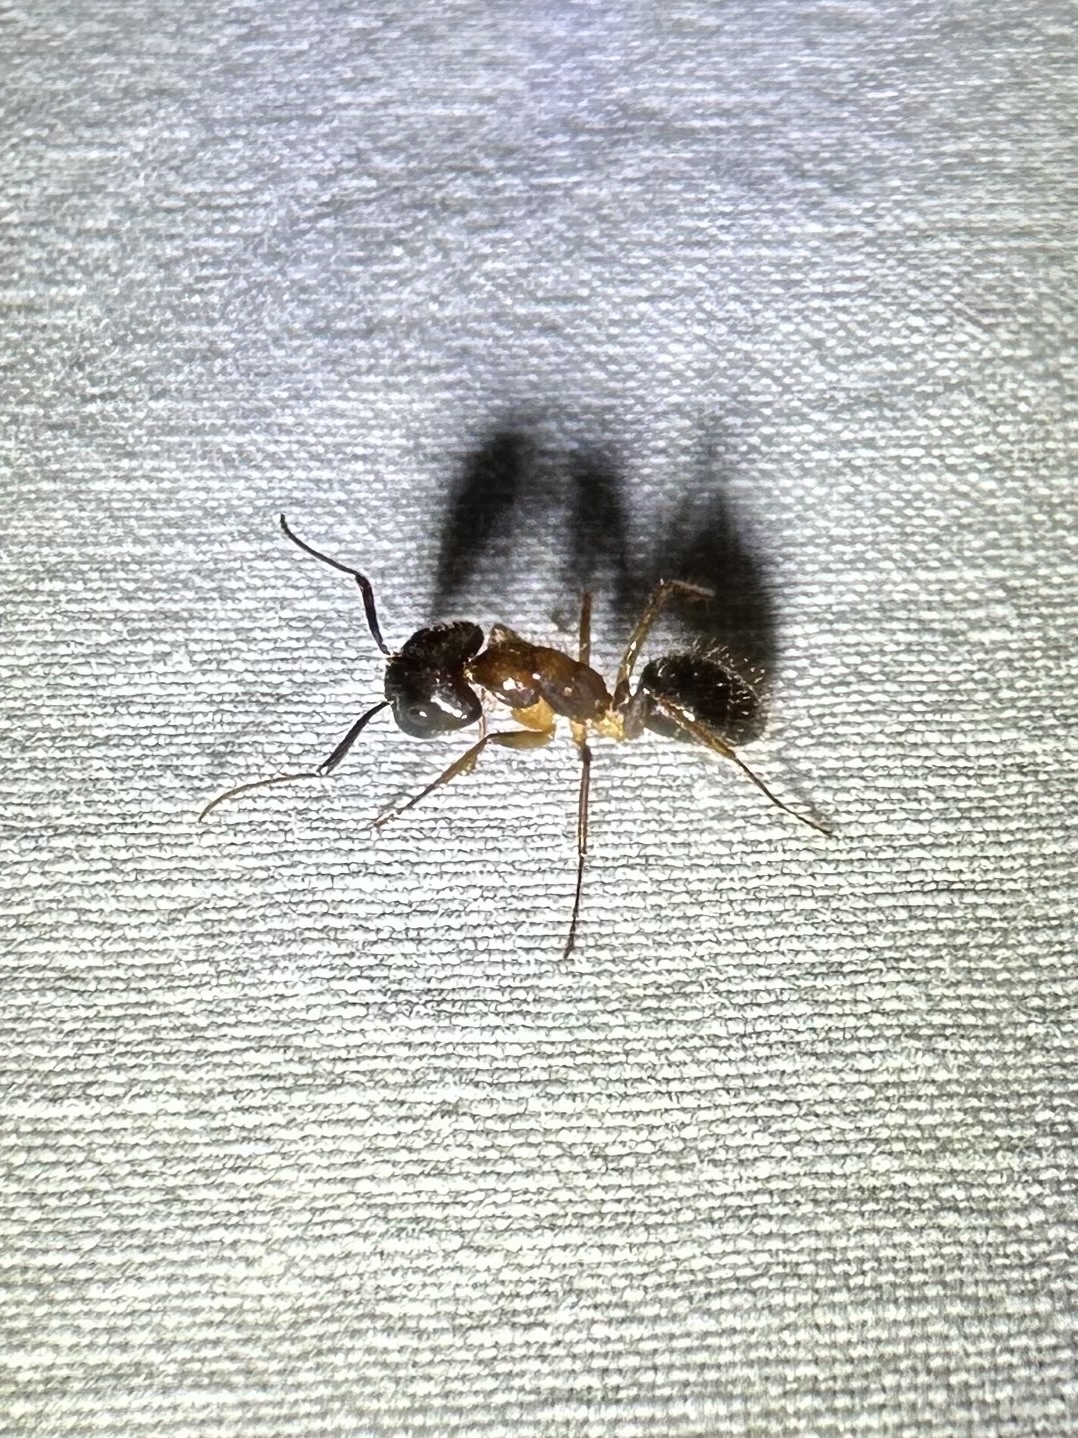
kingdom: Animalia
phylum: Arthropoda
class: Insecta
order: Hymenoptera
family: Formicidae
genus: Camponotus
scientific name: Camponotus atriceps
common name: Florida carpenter ant
